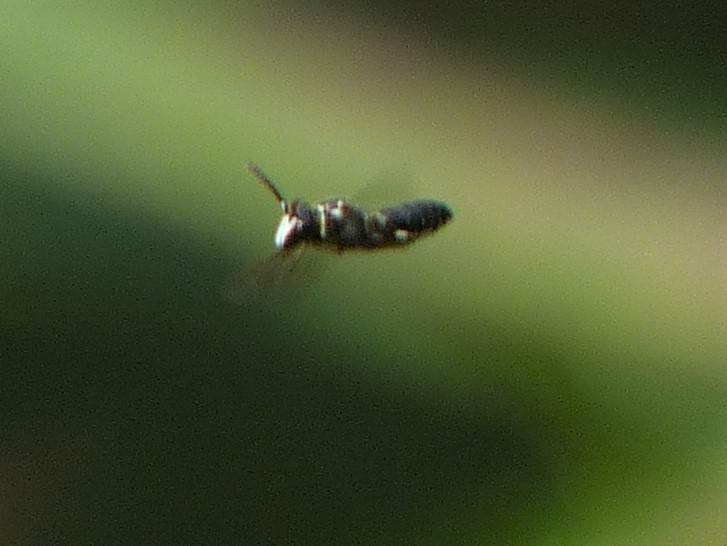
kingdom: Animalia
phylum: Arthropoda
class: Insecta
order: Hymenoptera
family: Colletidae
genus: Hylaeus
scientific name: Hylaeus leptocephalus
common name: Slender-faced masked bee
